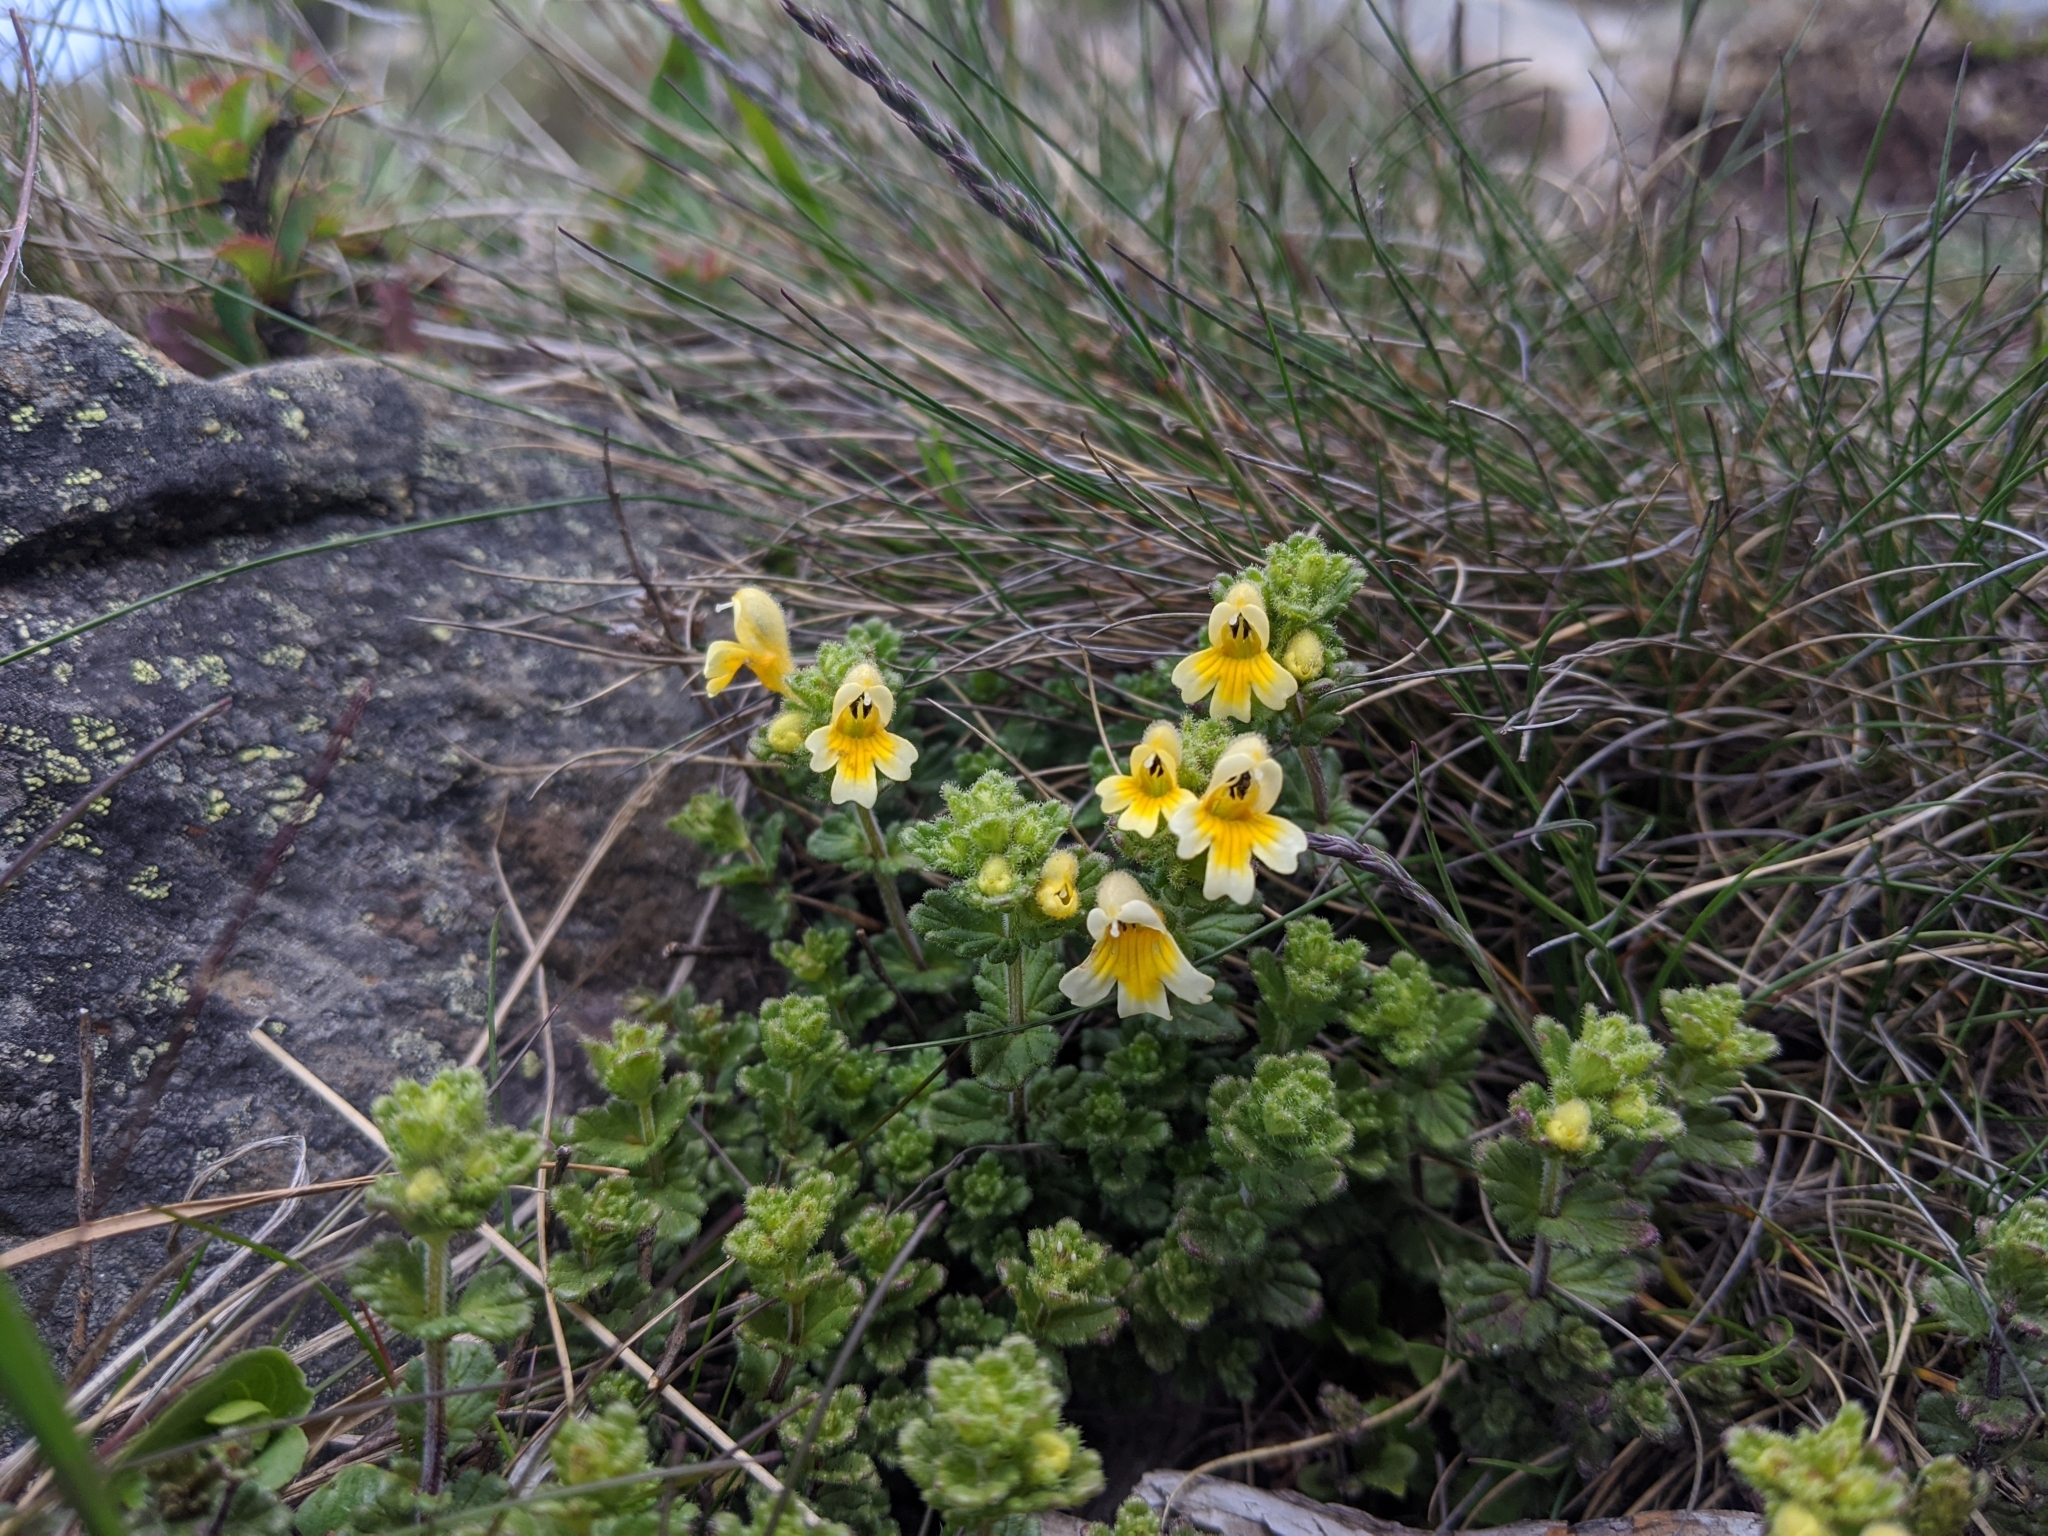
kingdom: Plantae
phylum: Tracheophyta
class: Magnoliopsida
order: Lamiales
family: Orobanchaceae
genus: Euphrasia
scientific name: Euphrasia nankotaizanensis
